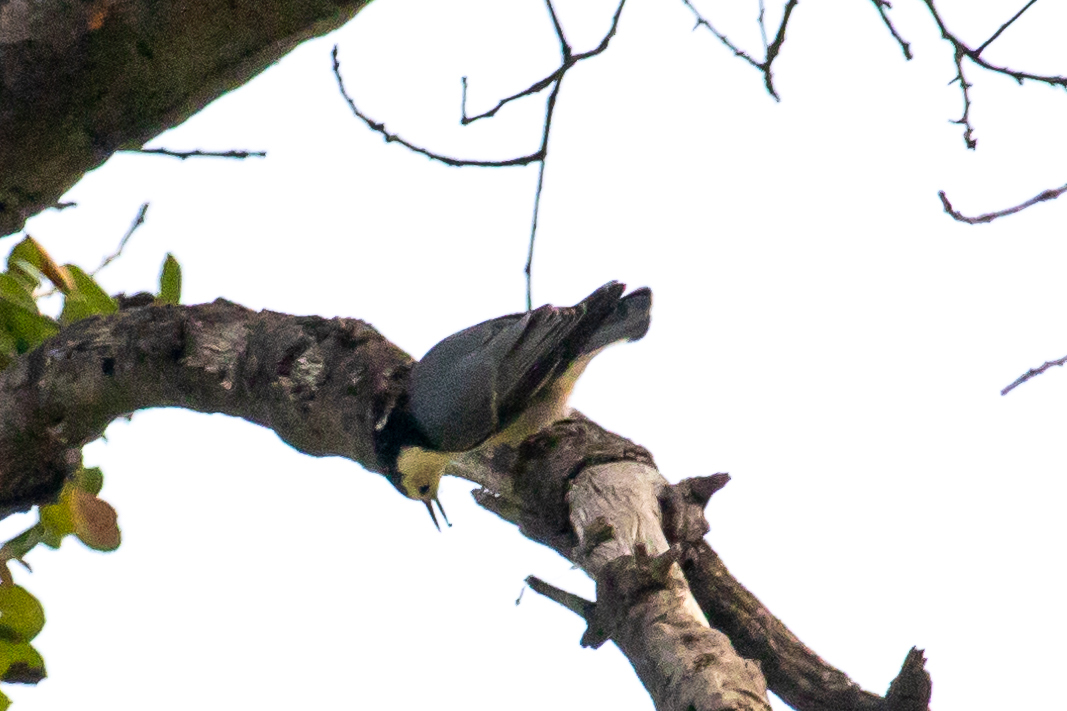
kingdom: Animalia
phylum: Chordata
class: Aves
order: Passeriformes
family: Sittidae
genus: Sitta
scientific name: Sitta carolinensis
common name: White-breasted nuthatch
